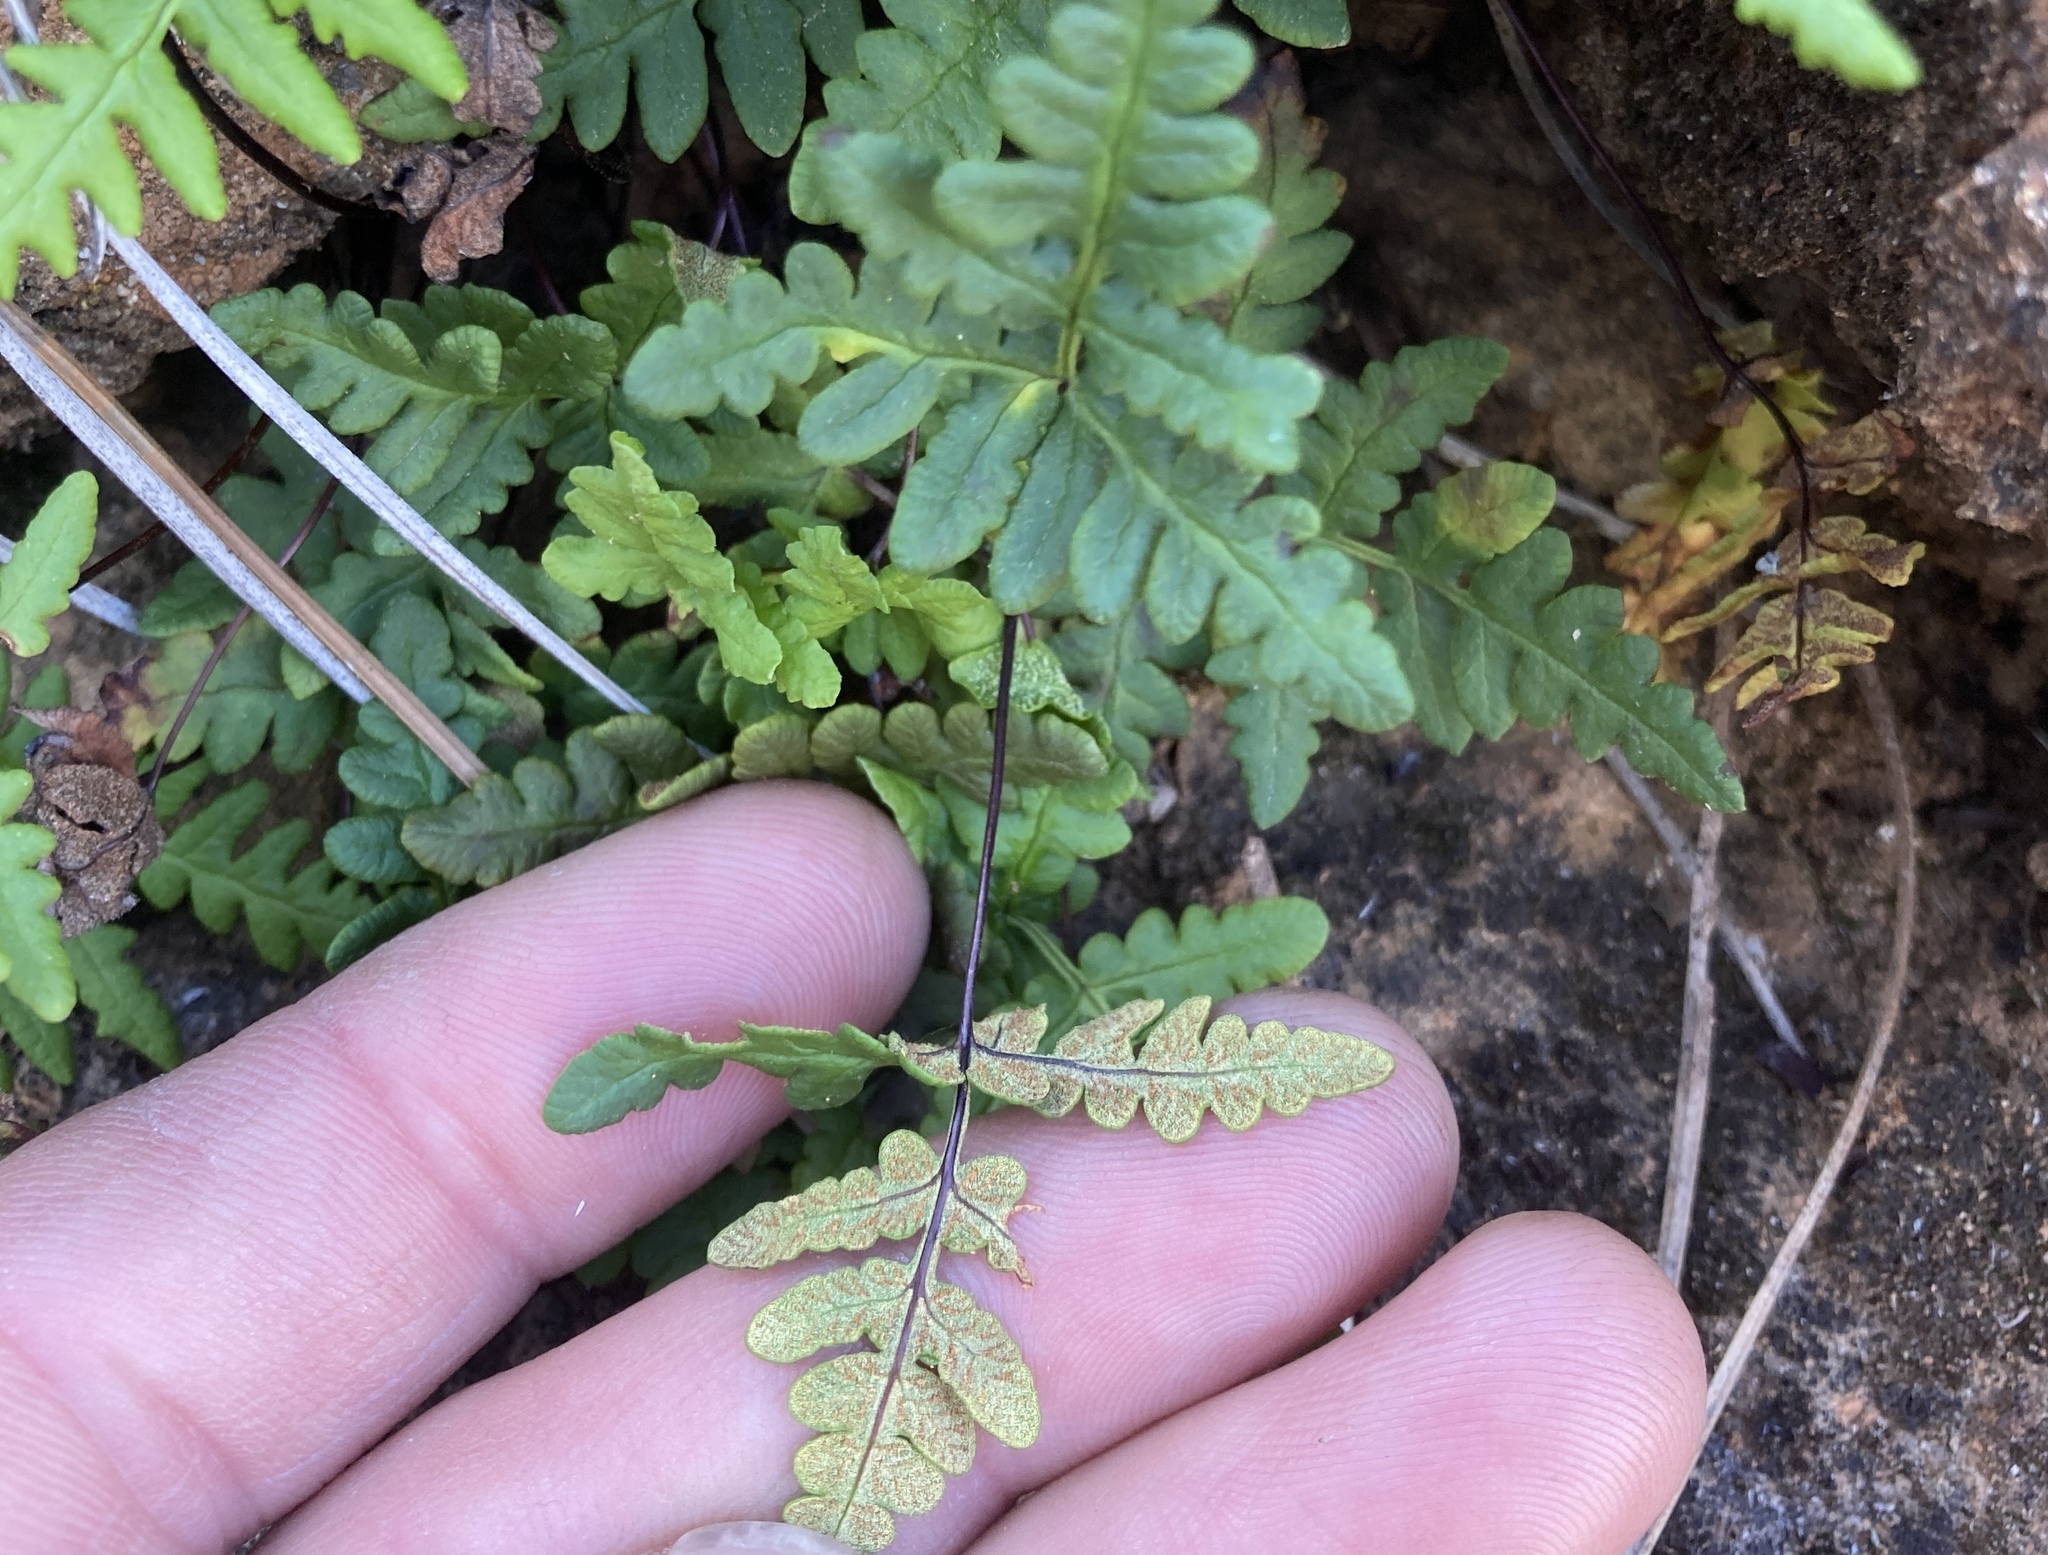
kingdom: Plantae
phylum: Tracheophyta
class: Polypodiopsida
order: Polypodiales
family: Pteridaceae
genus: Pentagramma
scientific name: Pentagramma triangularis
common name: Gold fern
